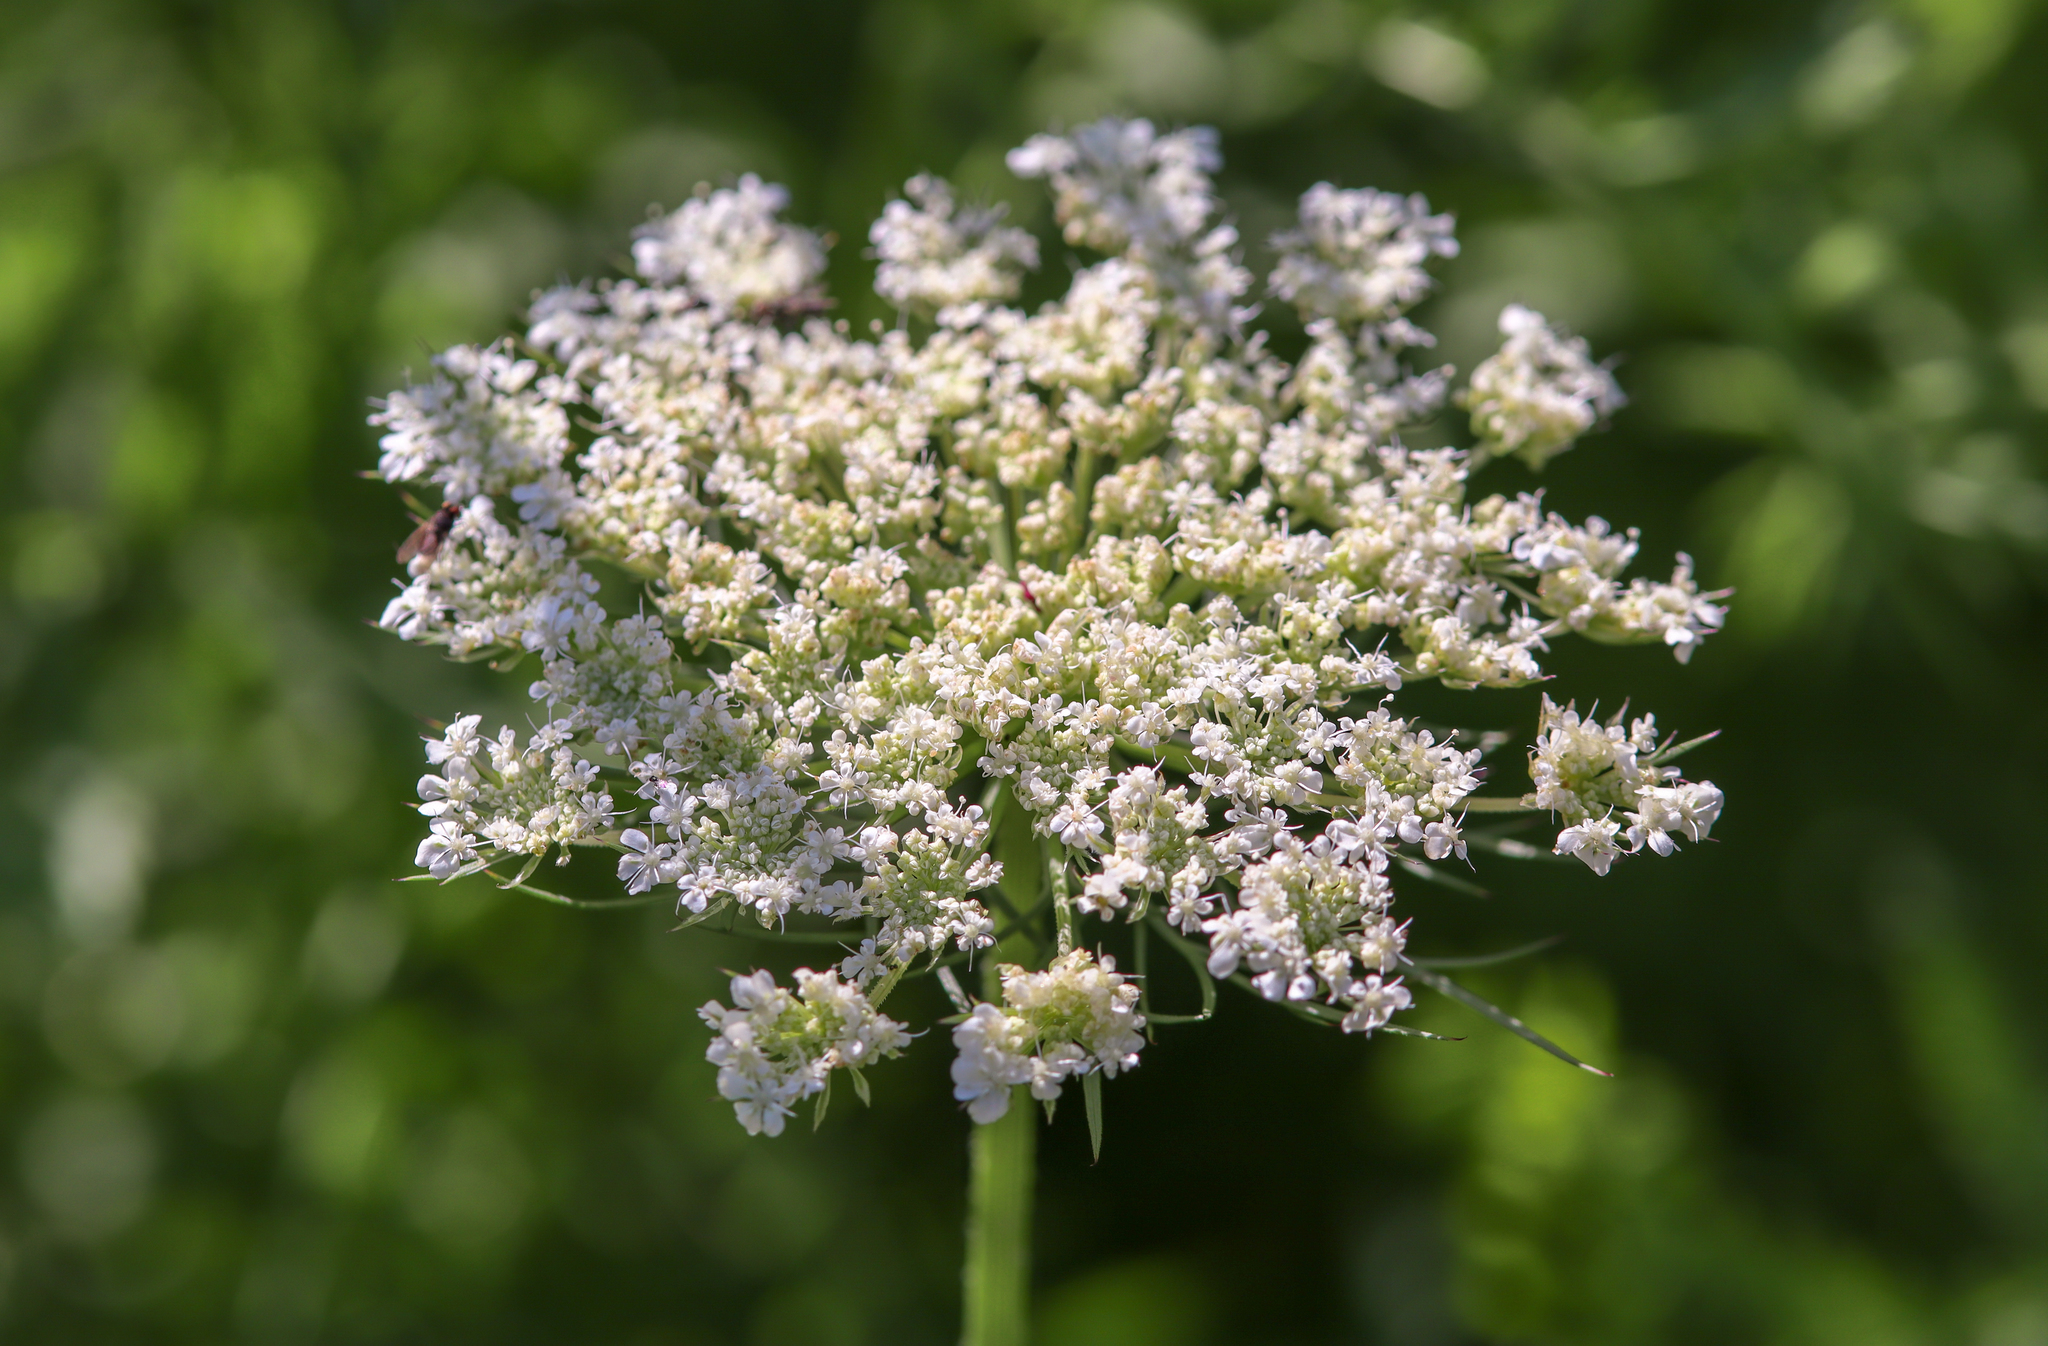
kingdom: Plantae
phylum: Tracheophyta
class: Magnoliopsida
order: Apiales
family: Apiaceae
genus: Daucus
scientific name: Daucus carota
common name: Wild carrot
